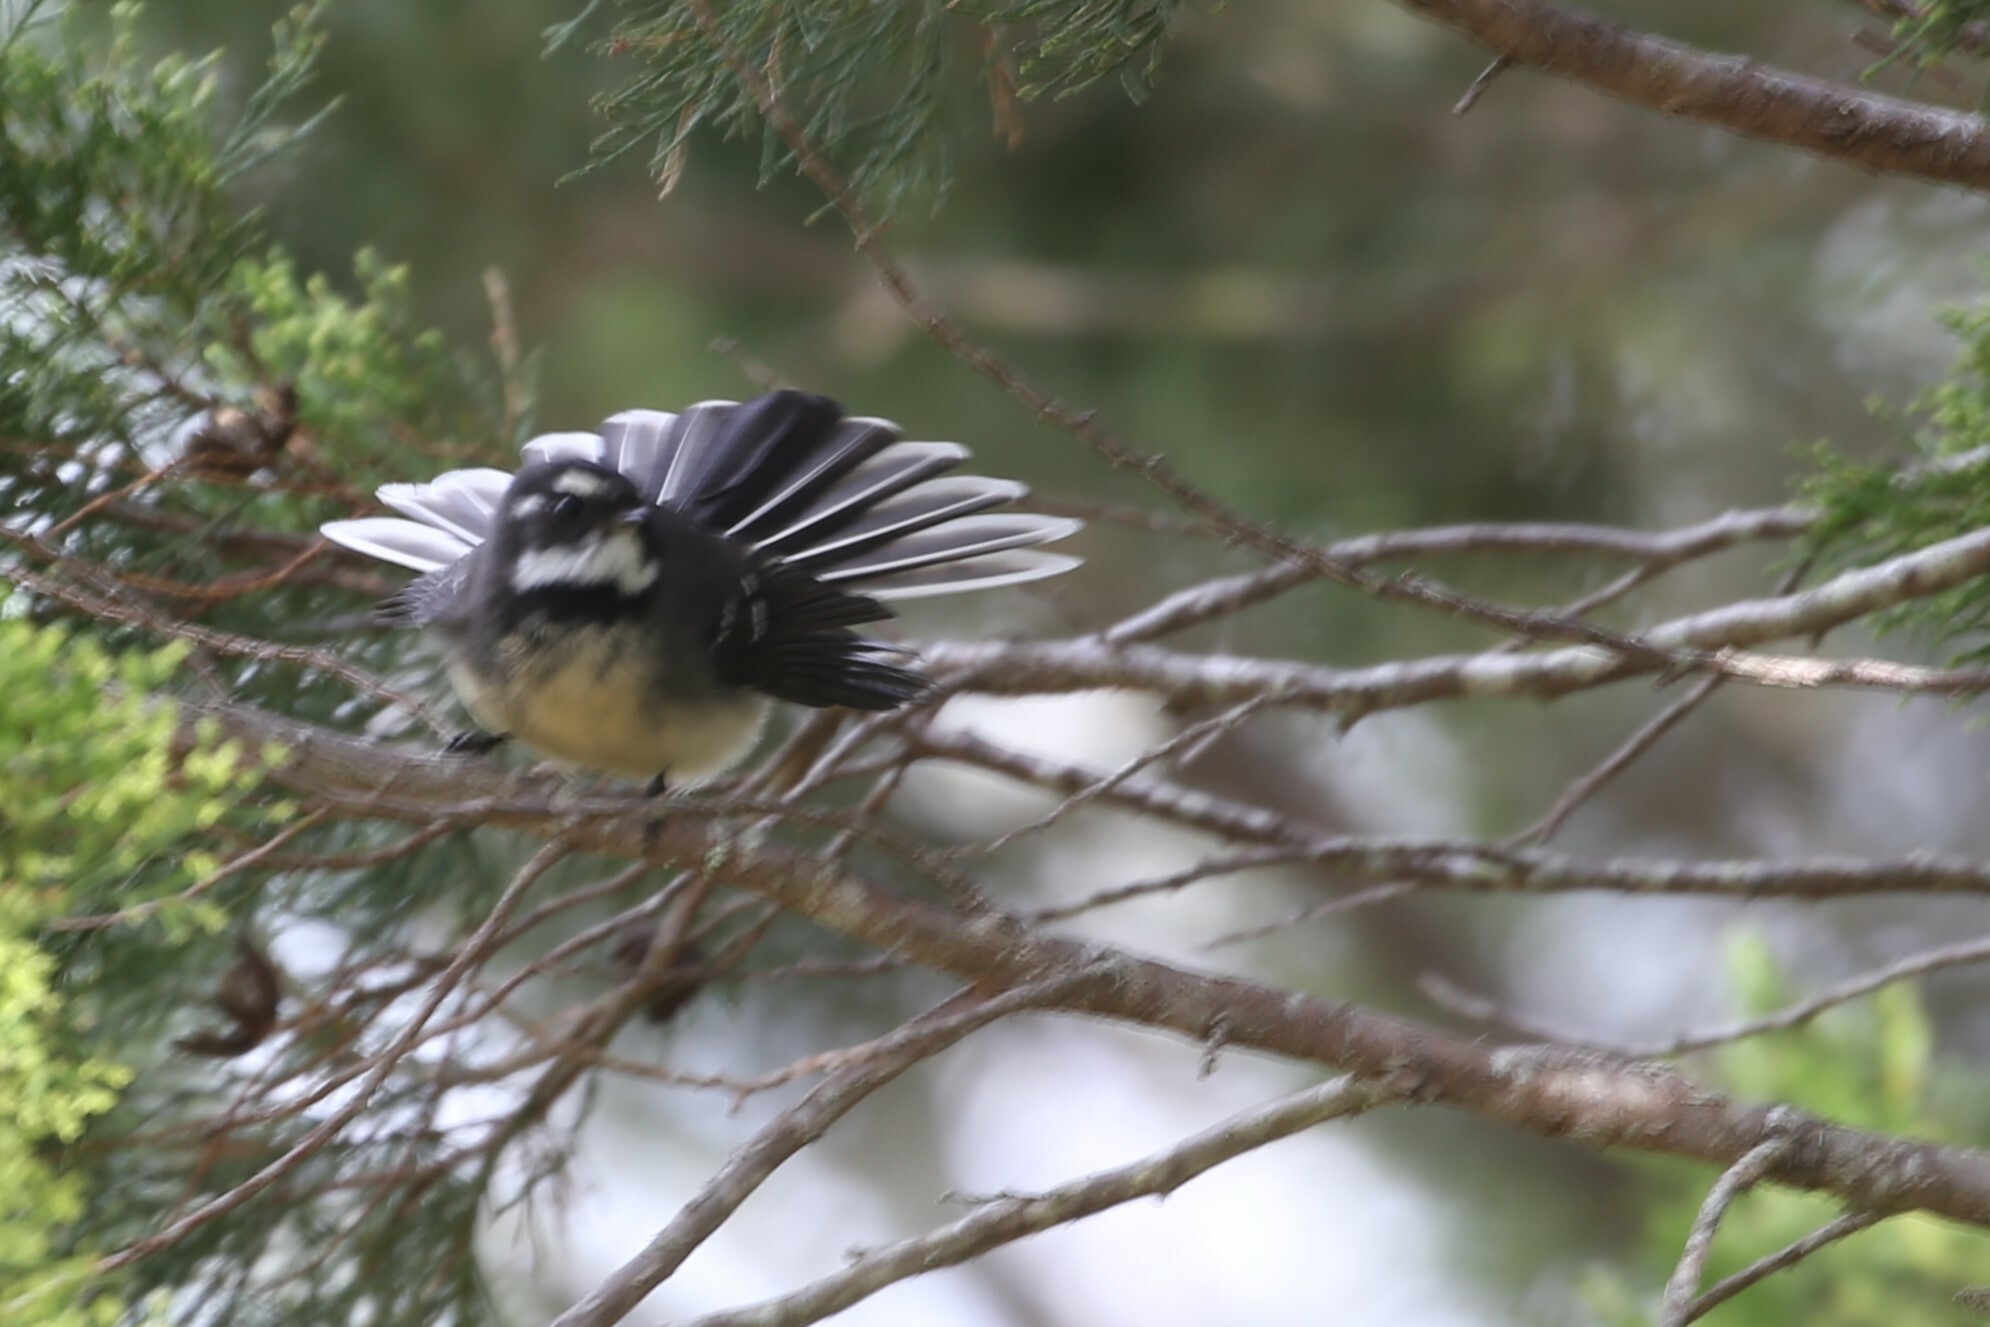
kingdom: Animalia
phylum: Chordata
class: Aves
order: Passeriformes
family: Rhipiduridae
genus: Rhipidura
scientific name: Rhipidura albiscapa
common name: Grey fantail
